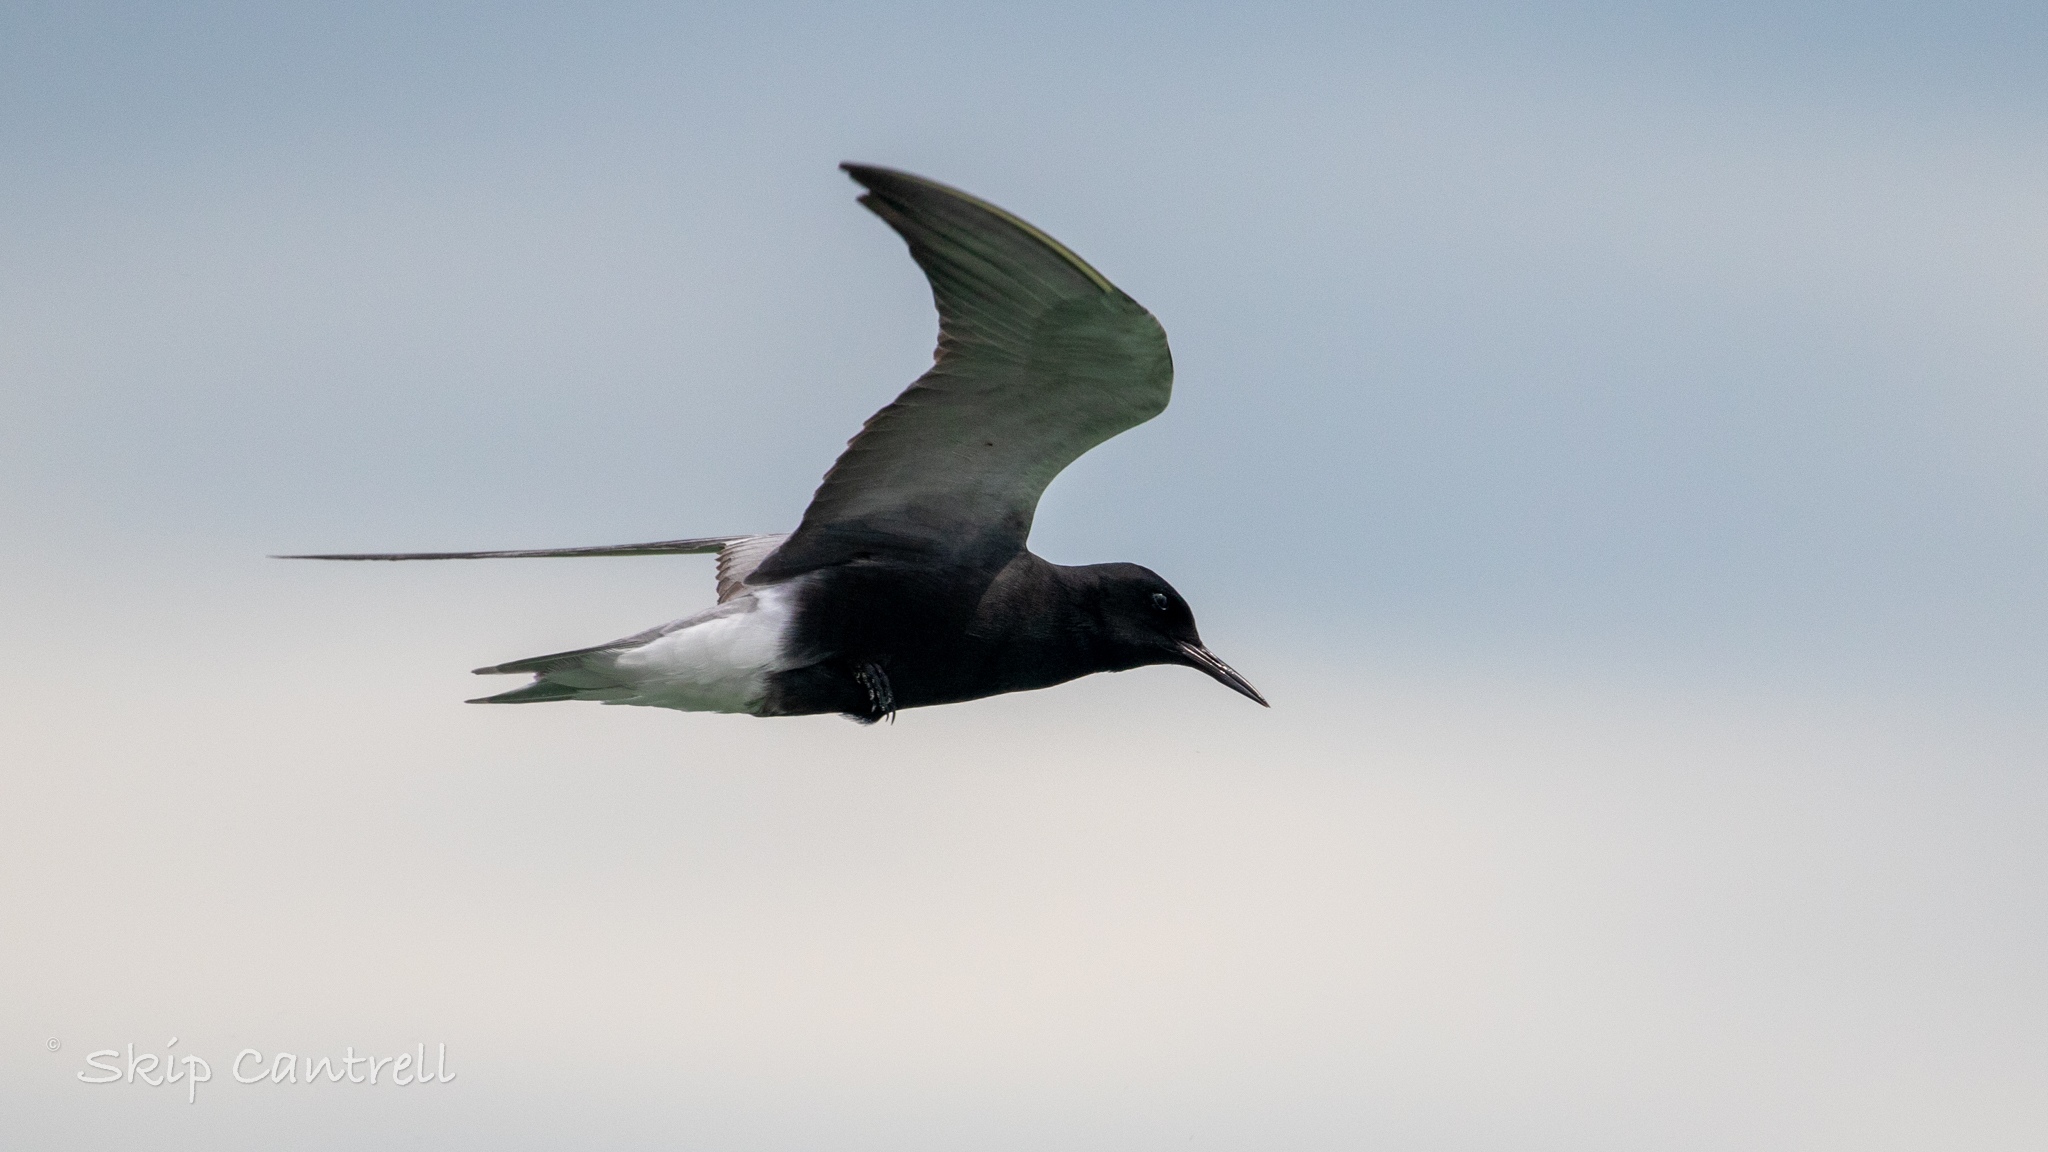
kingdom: Animalia
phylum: Chordata
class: Aves
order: Charadriiformes
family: Laridae
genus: Chlidonias
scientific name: Chlidonias niger
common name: Black tern
